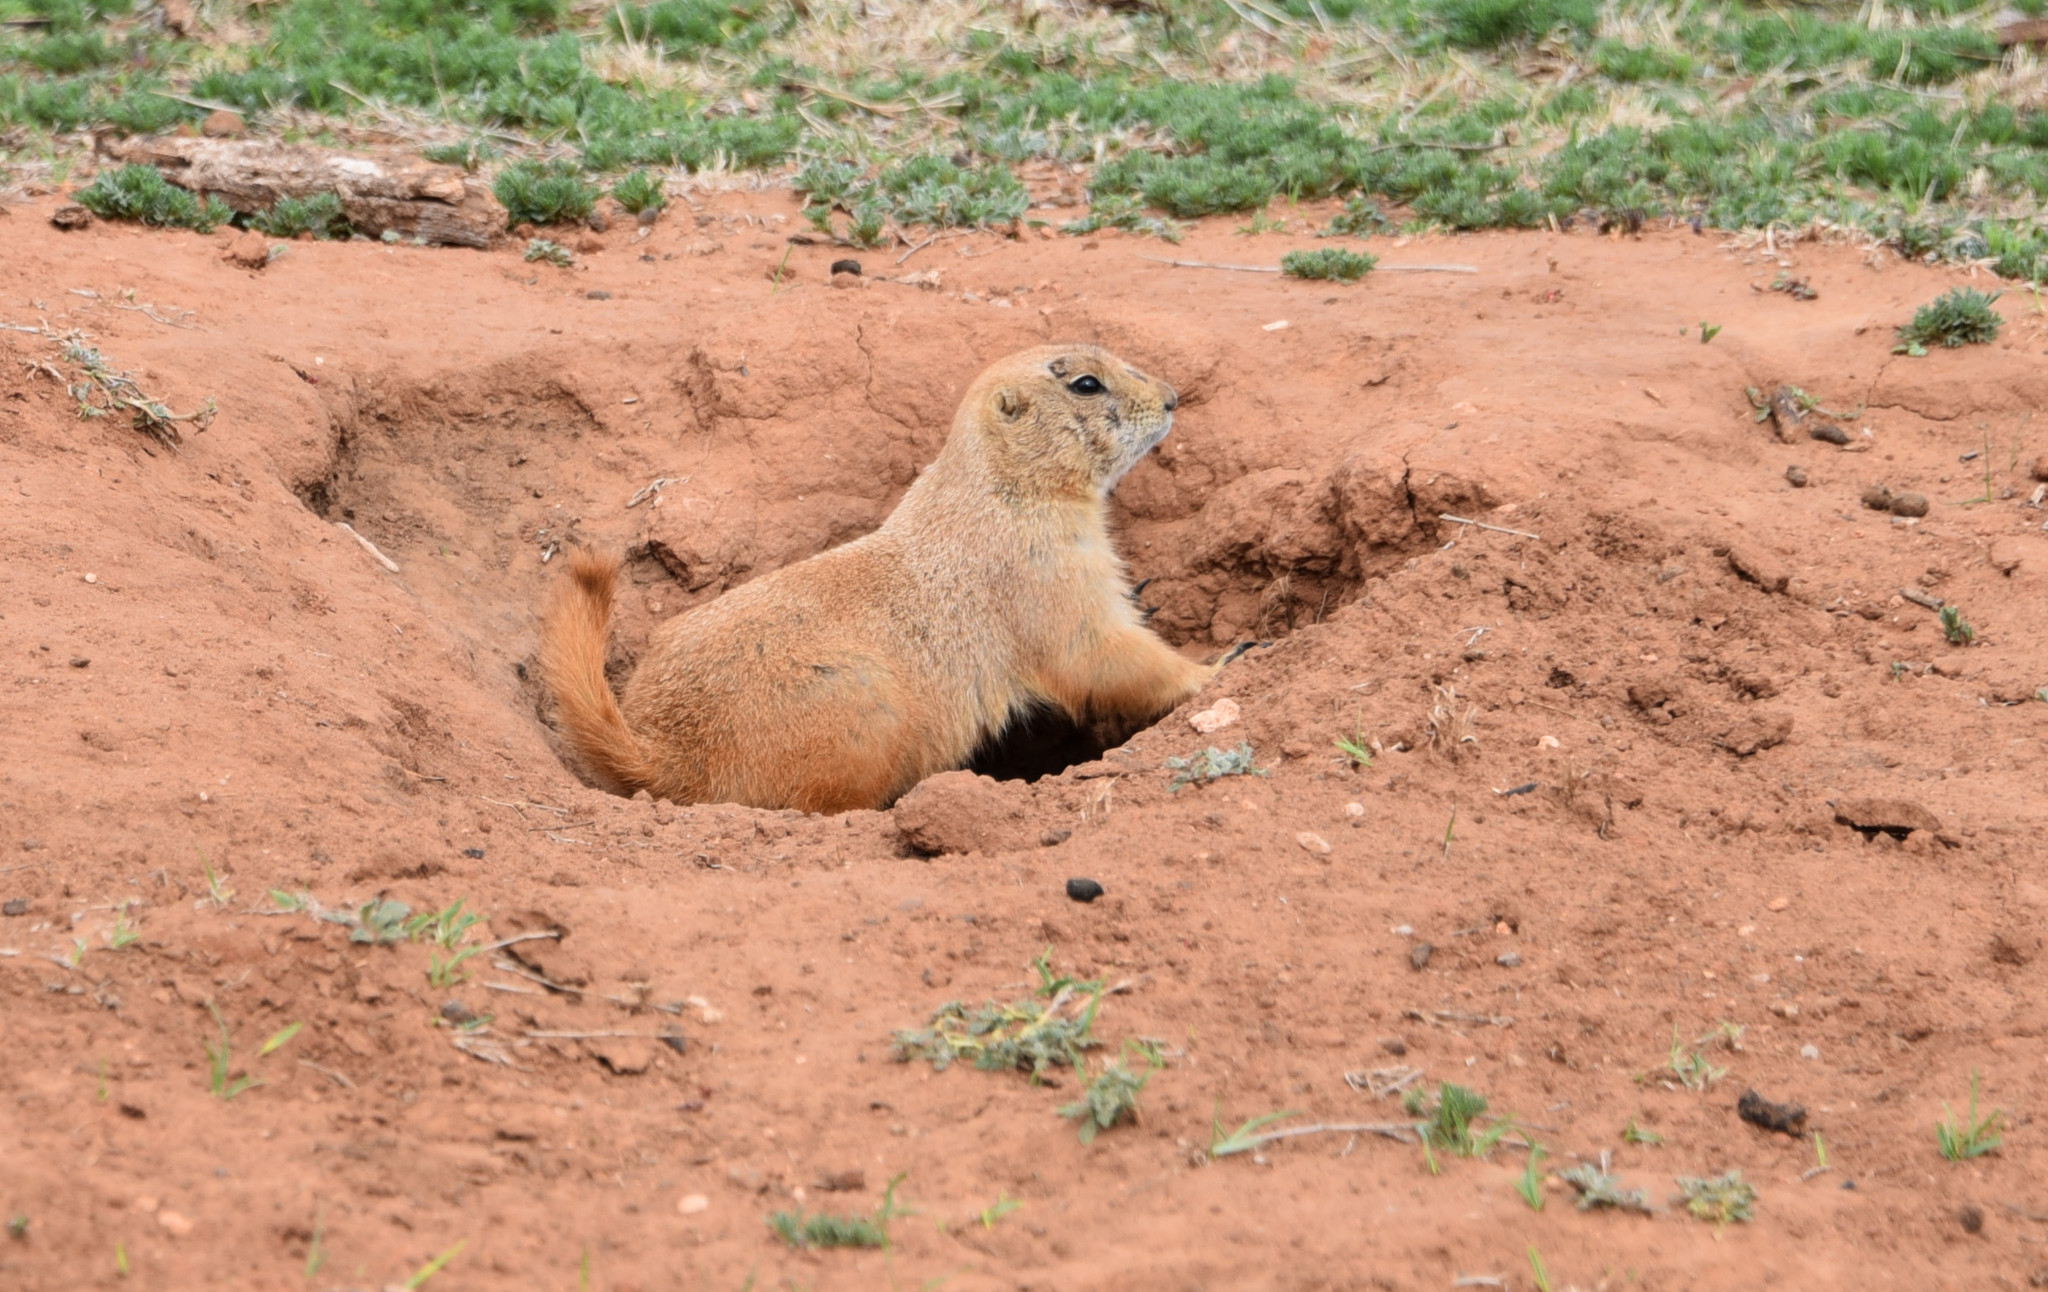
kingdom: Animalia
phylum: Chordata
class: Mammalia
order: Rodentia
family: Sciuridae
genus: Cynomys
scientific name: Cynomys ludovicianus
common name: Black-tailed prairie dog
